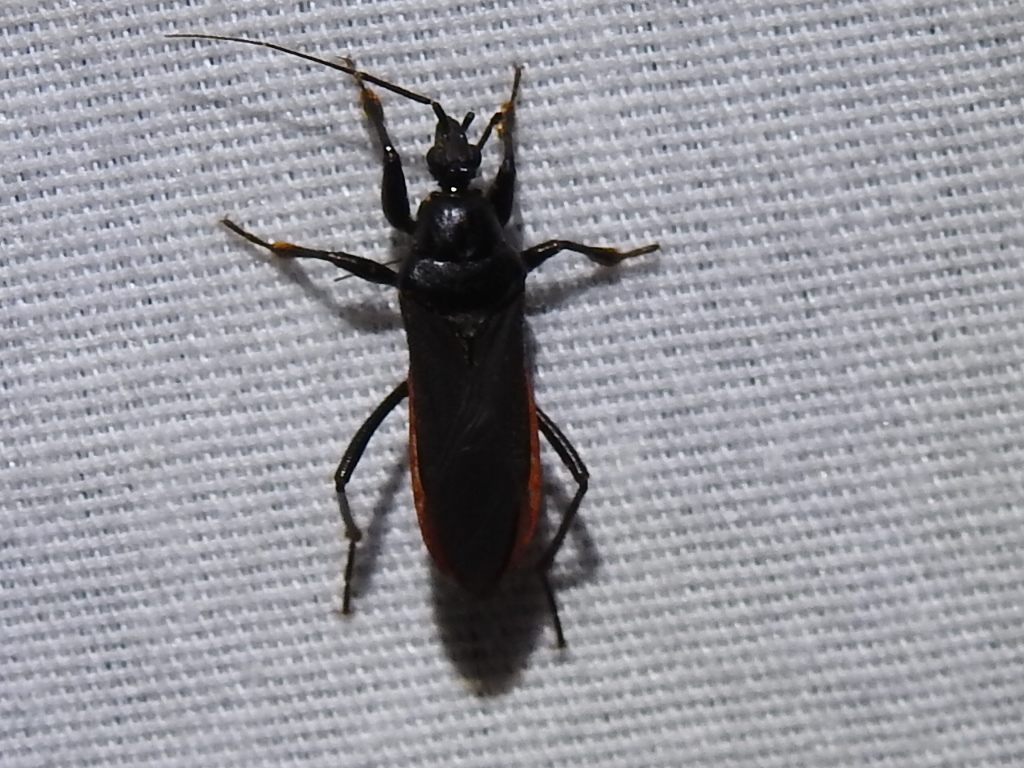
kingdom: Animalia
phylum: Arthropoda
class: Insecta
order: Hemiptera
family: Reduviidae
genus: Melanolestes
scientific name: Melanolestes picipes
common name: Assassin bug
